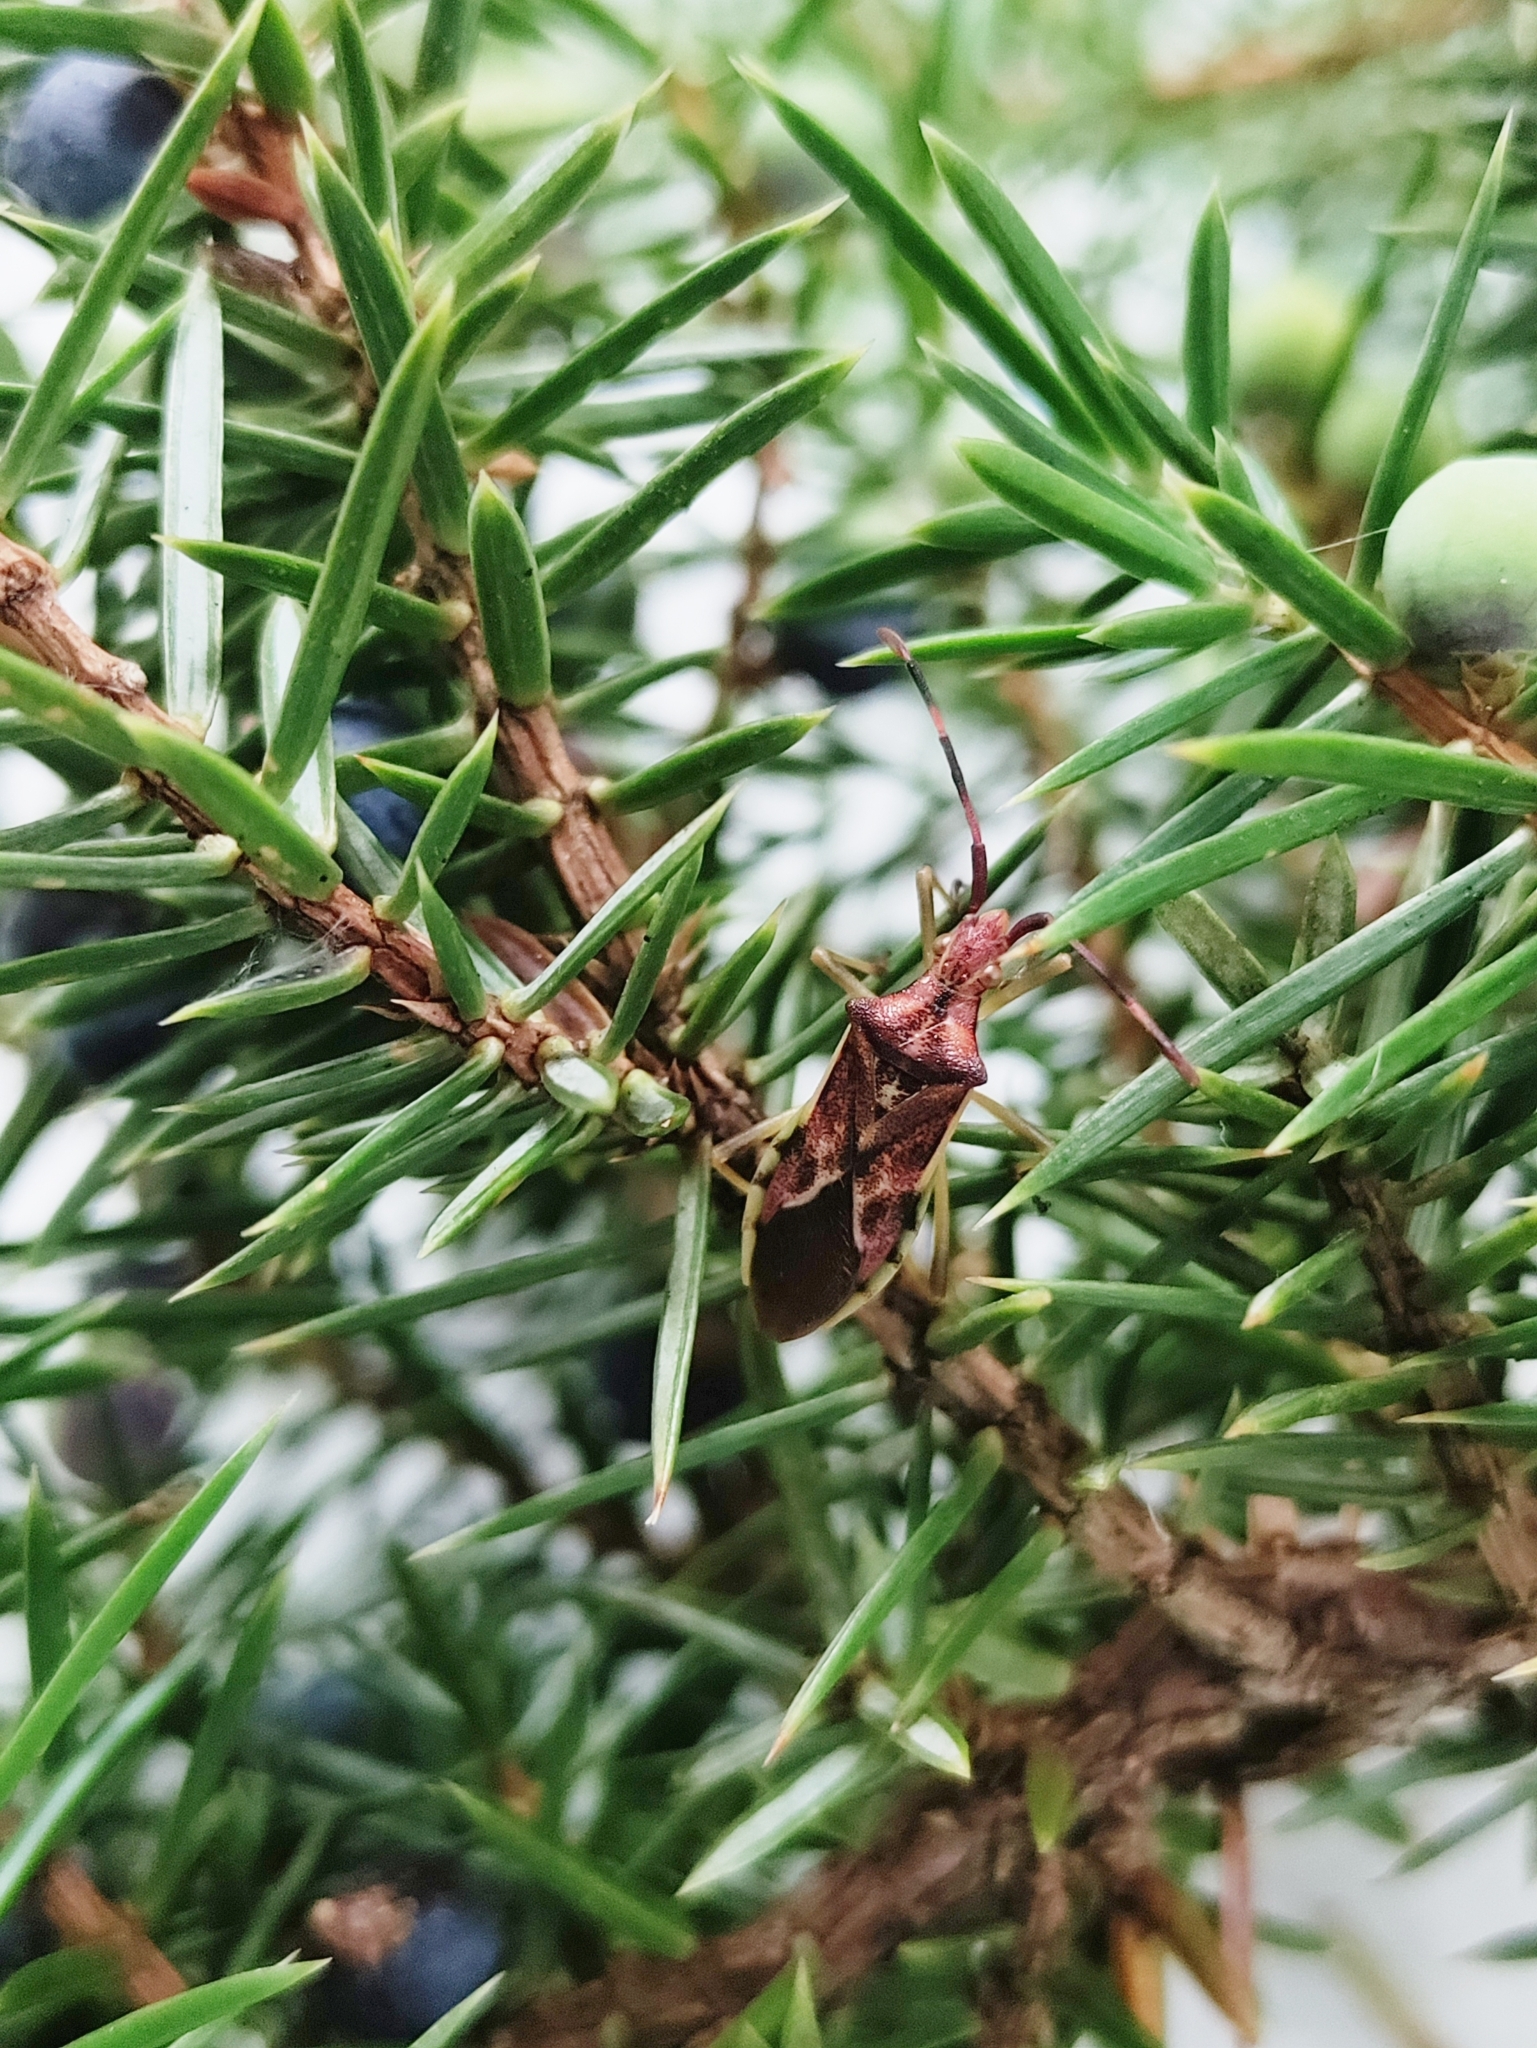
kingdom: Animalia
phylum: Arthropoda
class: Insecta
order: Hemiptera
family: Coreidae
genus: Gonocerus
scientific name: Gonocerus juniperi
